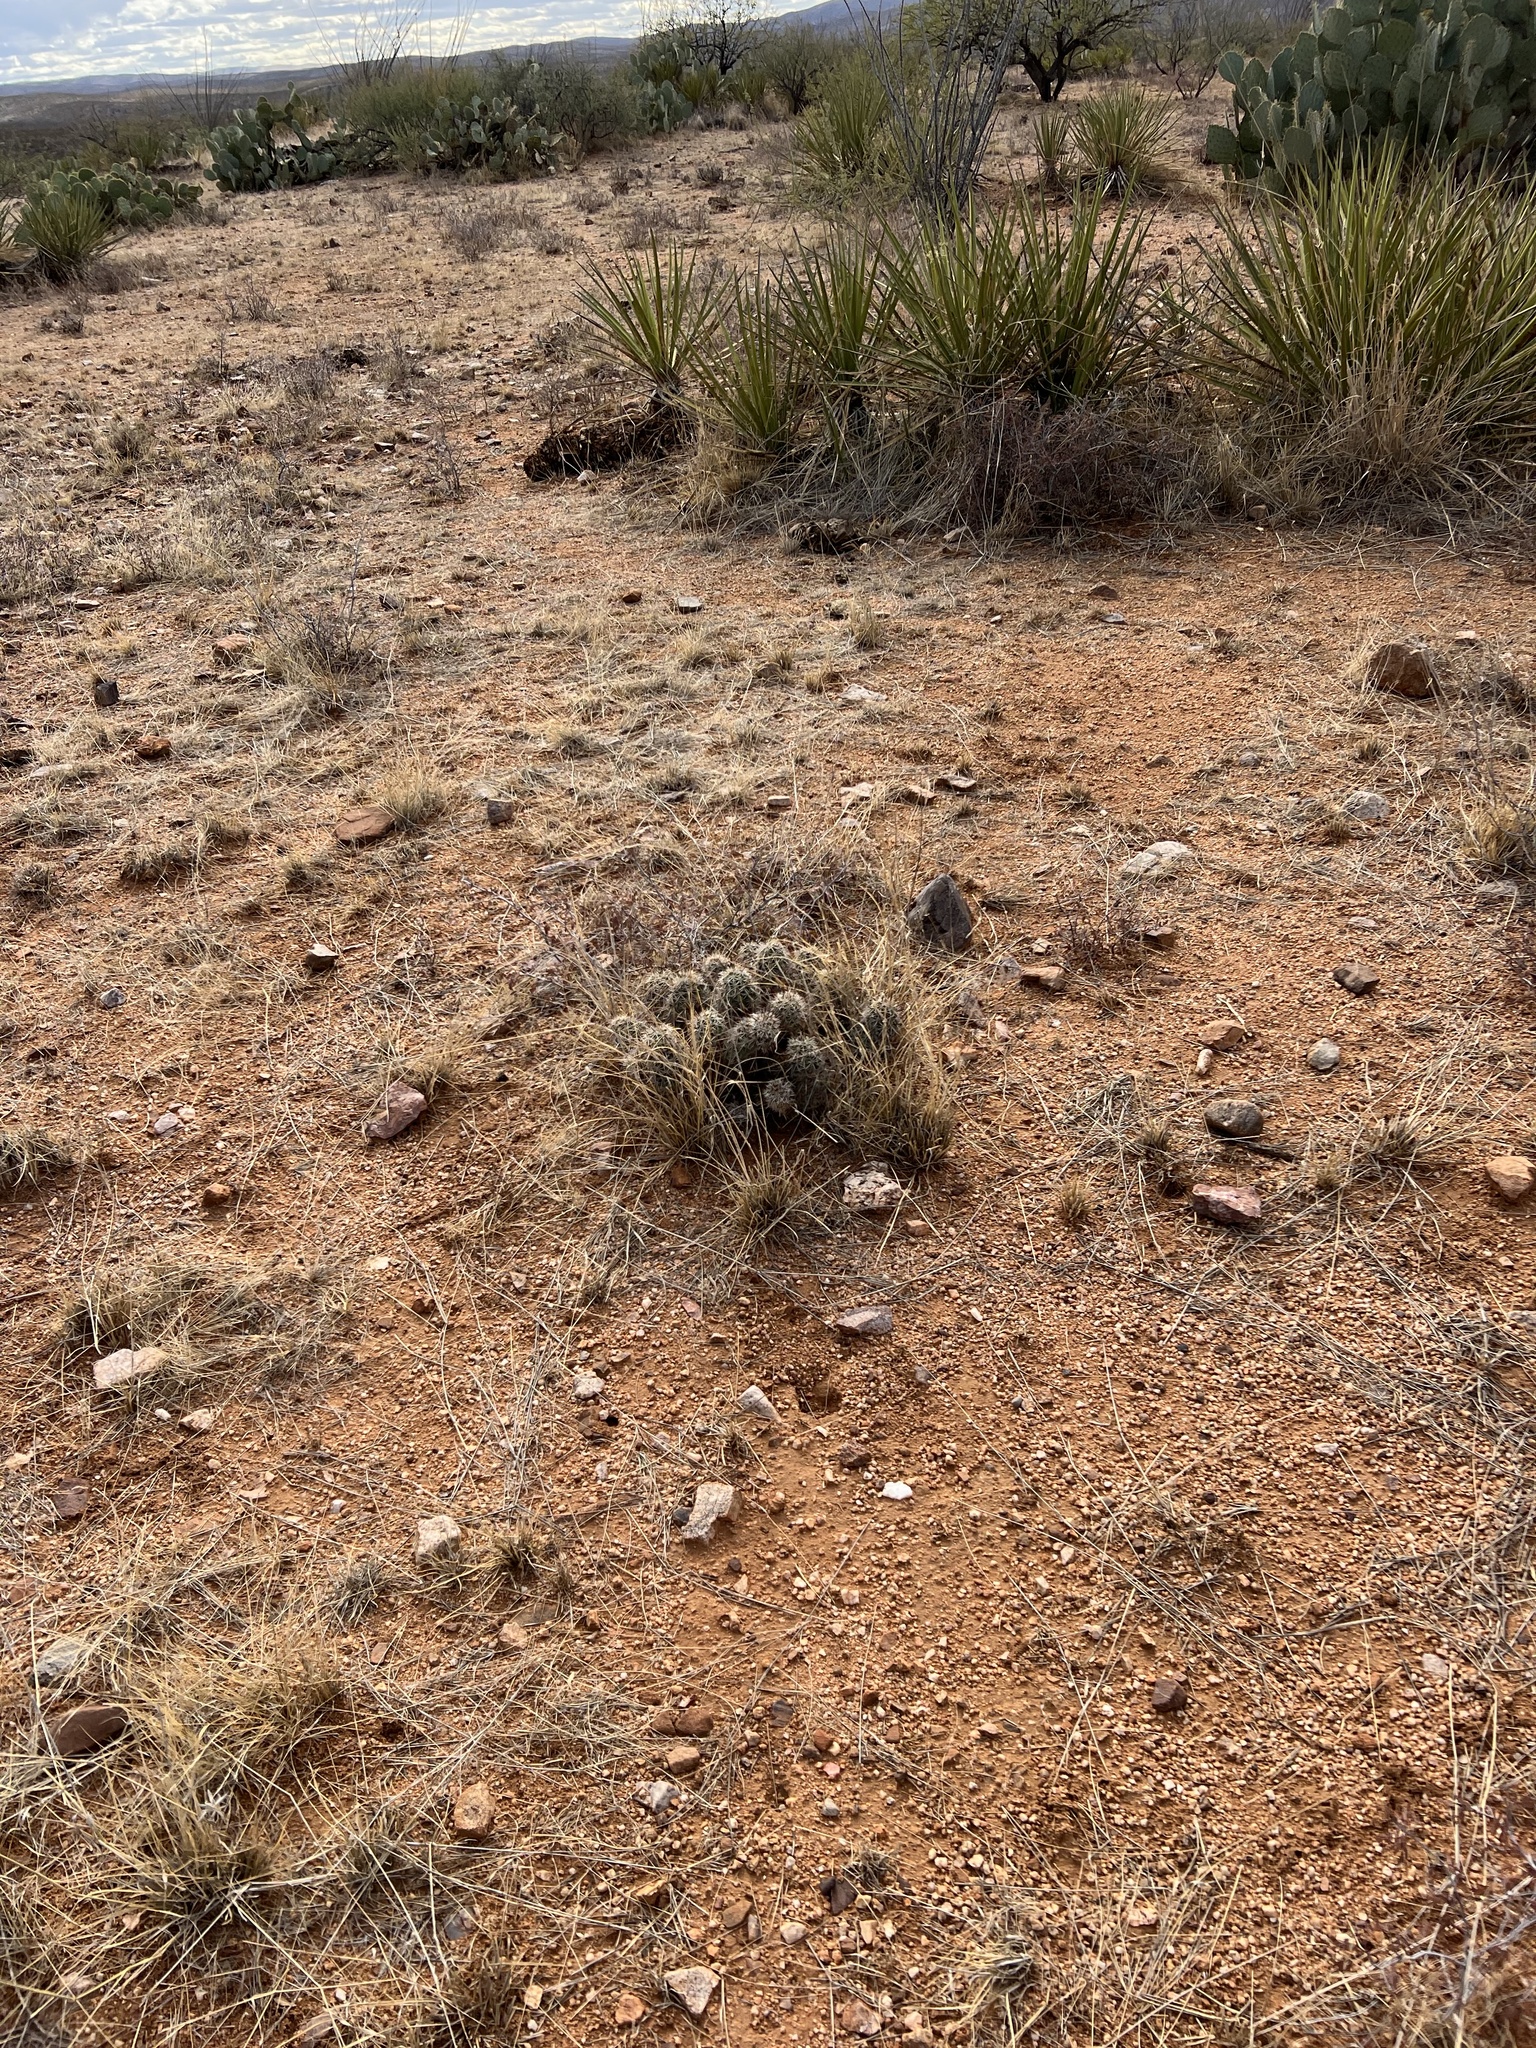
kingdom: Plantae
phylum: Tracheophyta
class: Magnoliopsida
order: Caryophyllales
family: Cactaceae
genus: Echinocereus
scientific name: Echinocereus fasciculatus
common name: Bundle hedgehog
